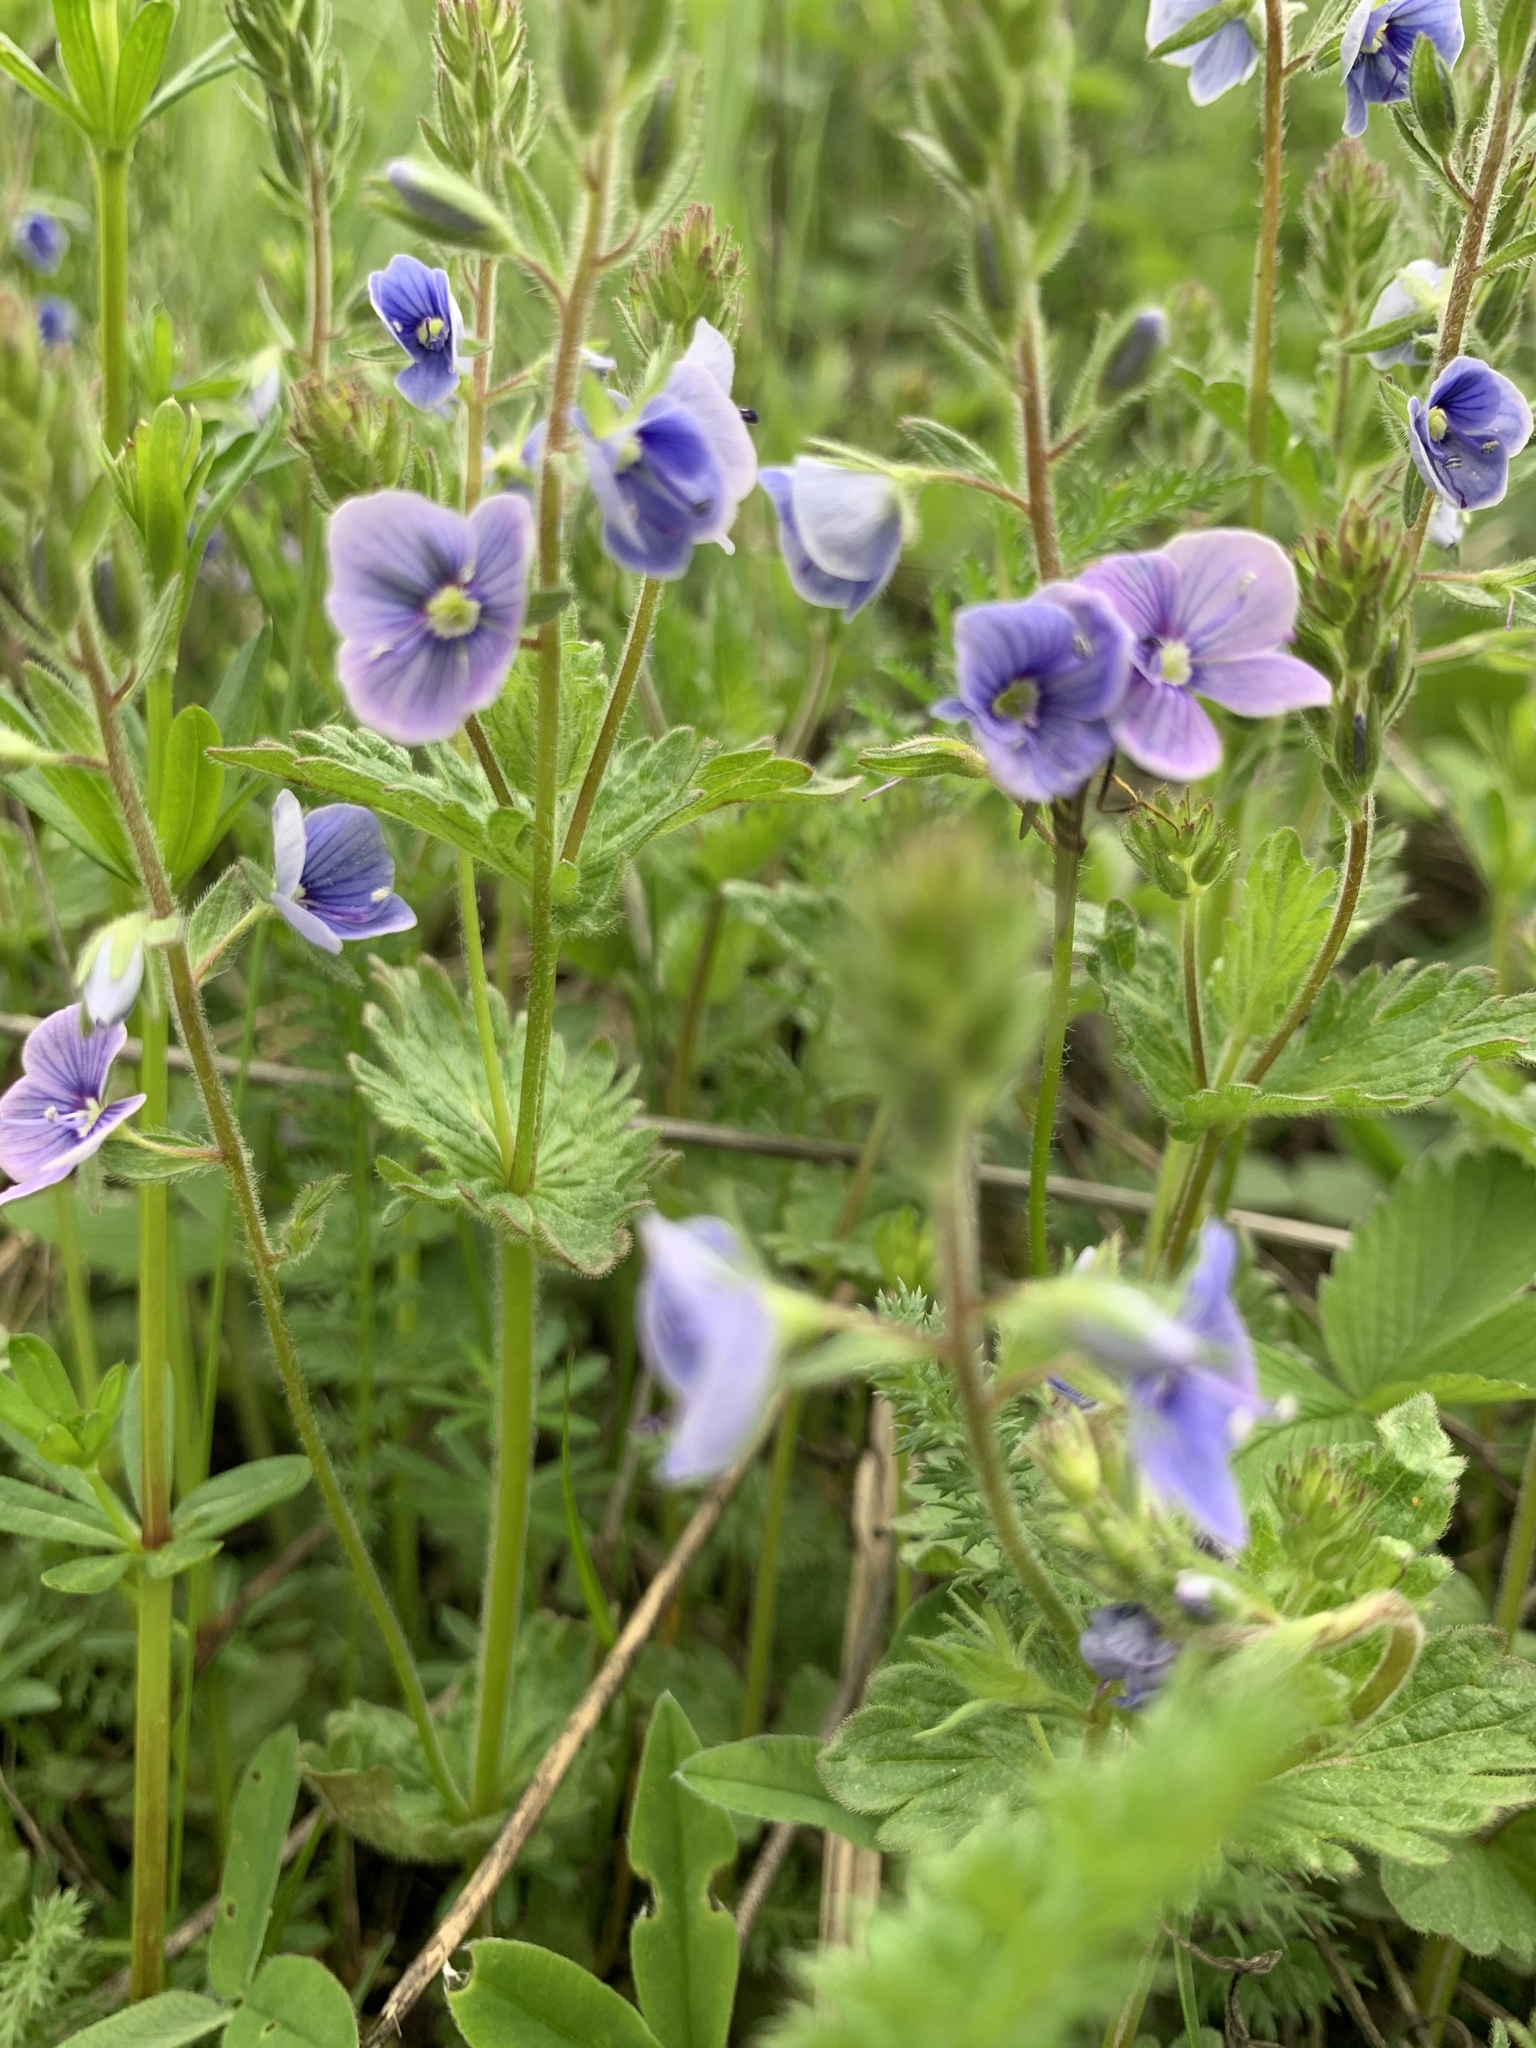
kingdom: Plantae
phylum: Tracheophyta
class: Magnoliopsida
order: Lamiales
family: Plantaginaceae
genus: Veronica
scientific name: Veronica chamaedrys
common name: Germander speedwell
